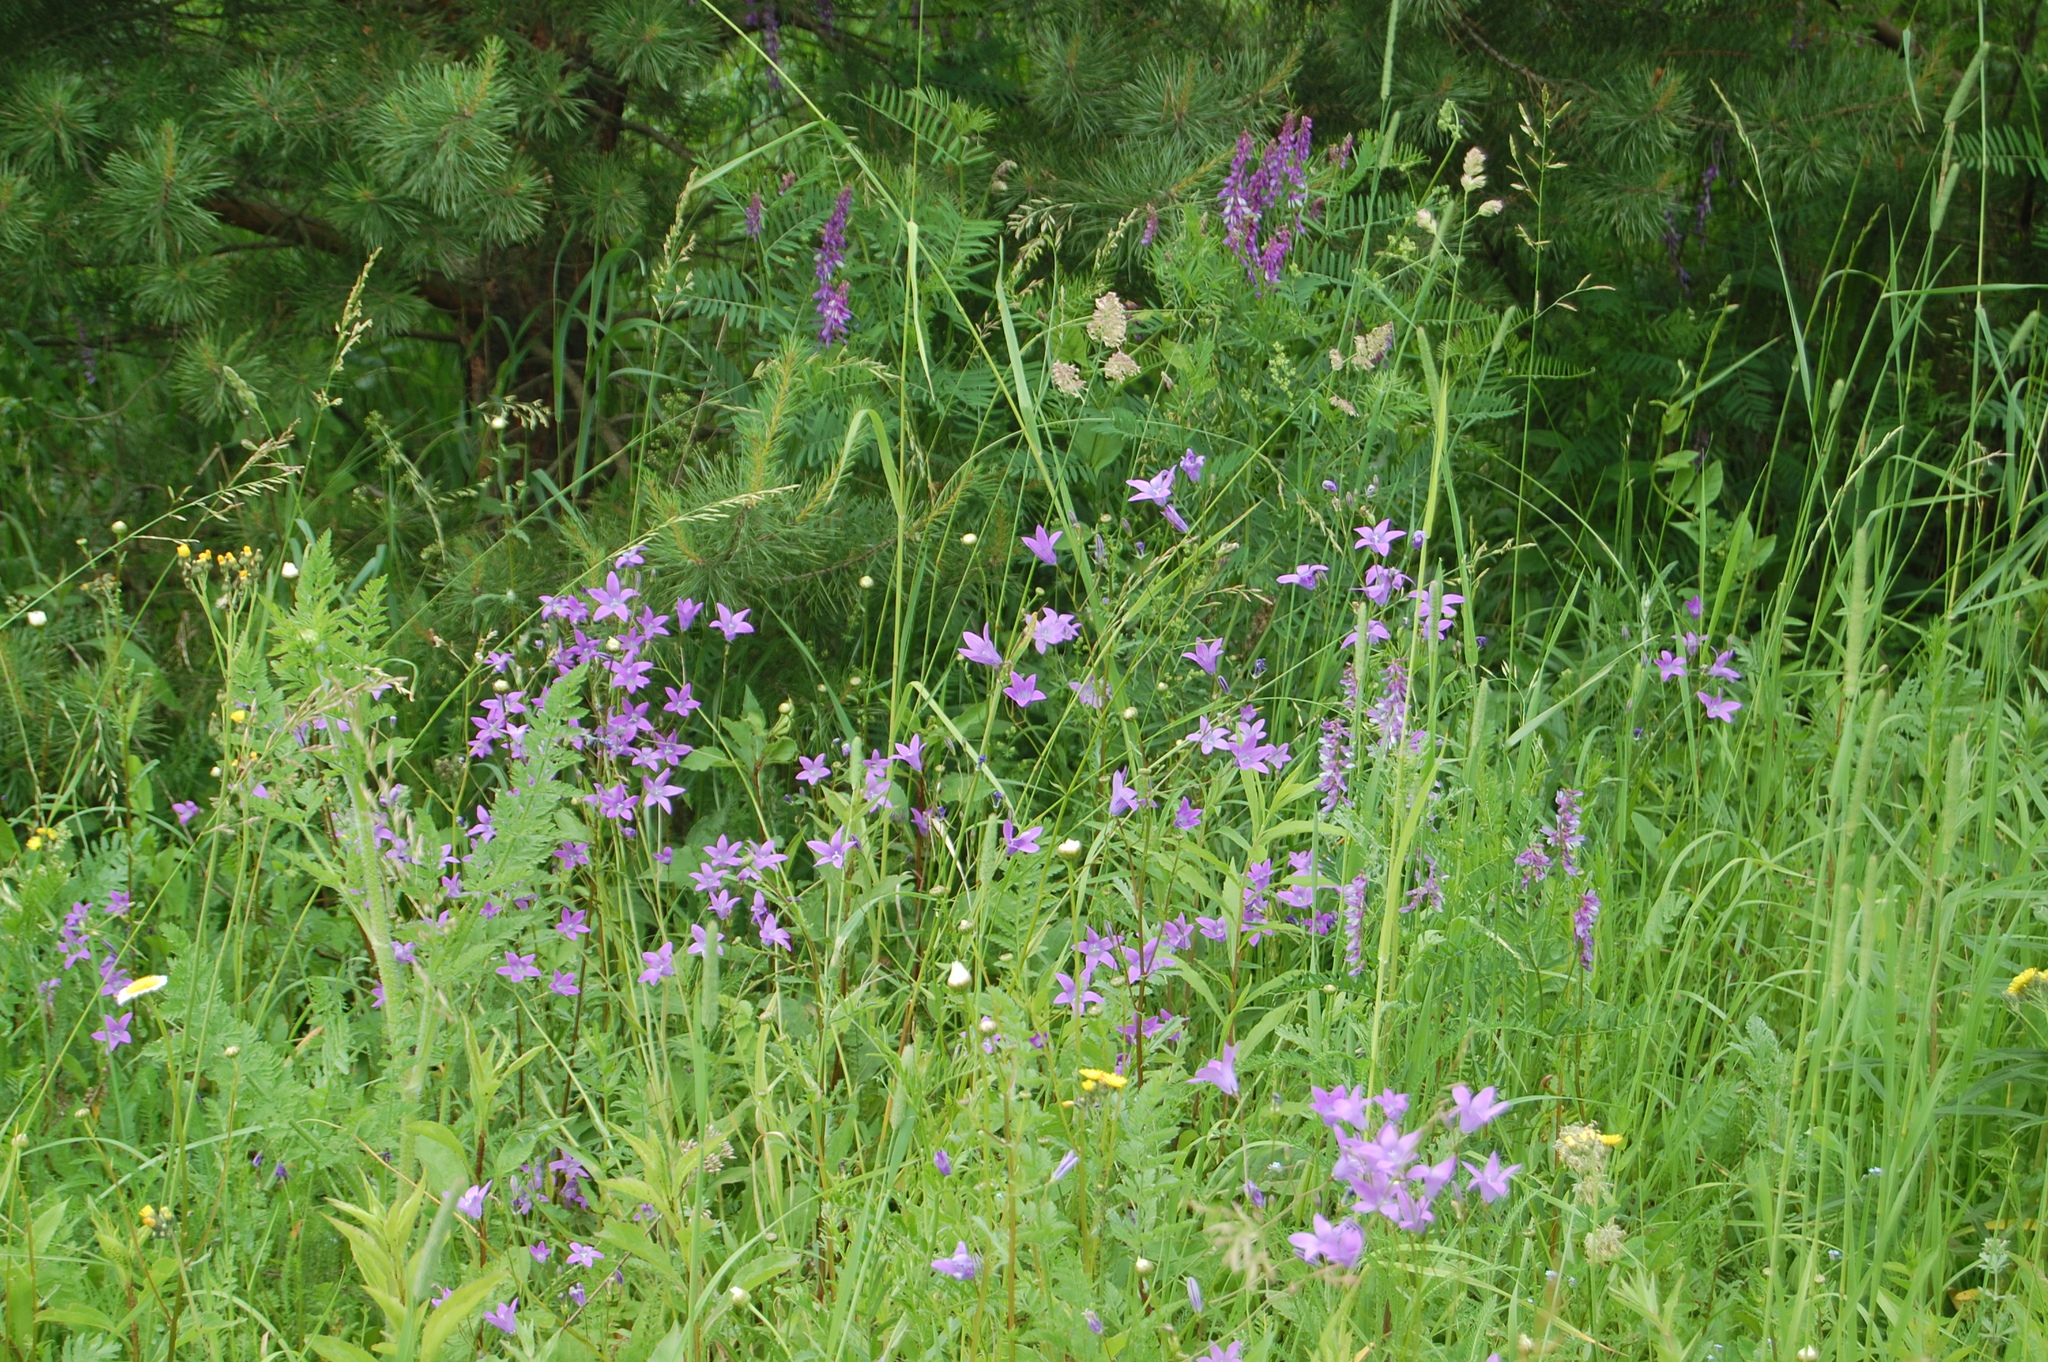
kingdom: Plantae
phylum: Tracheophyta
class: Magnoliopsida
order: Asterales
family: Campanulaceae
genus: Campanula
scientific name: Campanula patula
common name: Spreading bellflower
